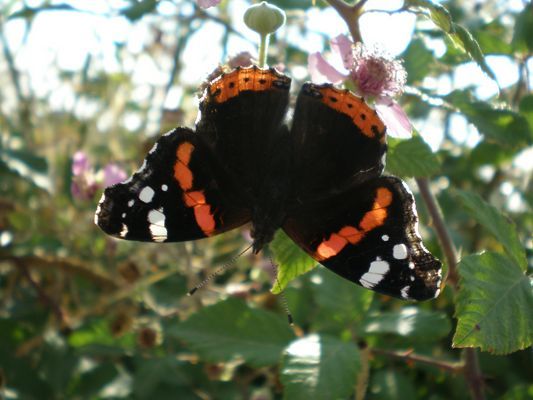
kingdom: Animalia
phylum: Arthropoda
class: Insecta
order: Lepidoptera
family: Nymphalidae
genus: Vanessa
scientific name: Vanessa atalanta
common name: Red admiral
